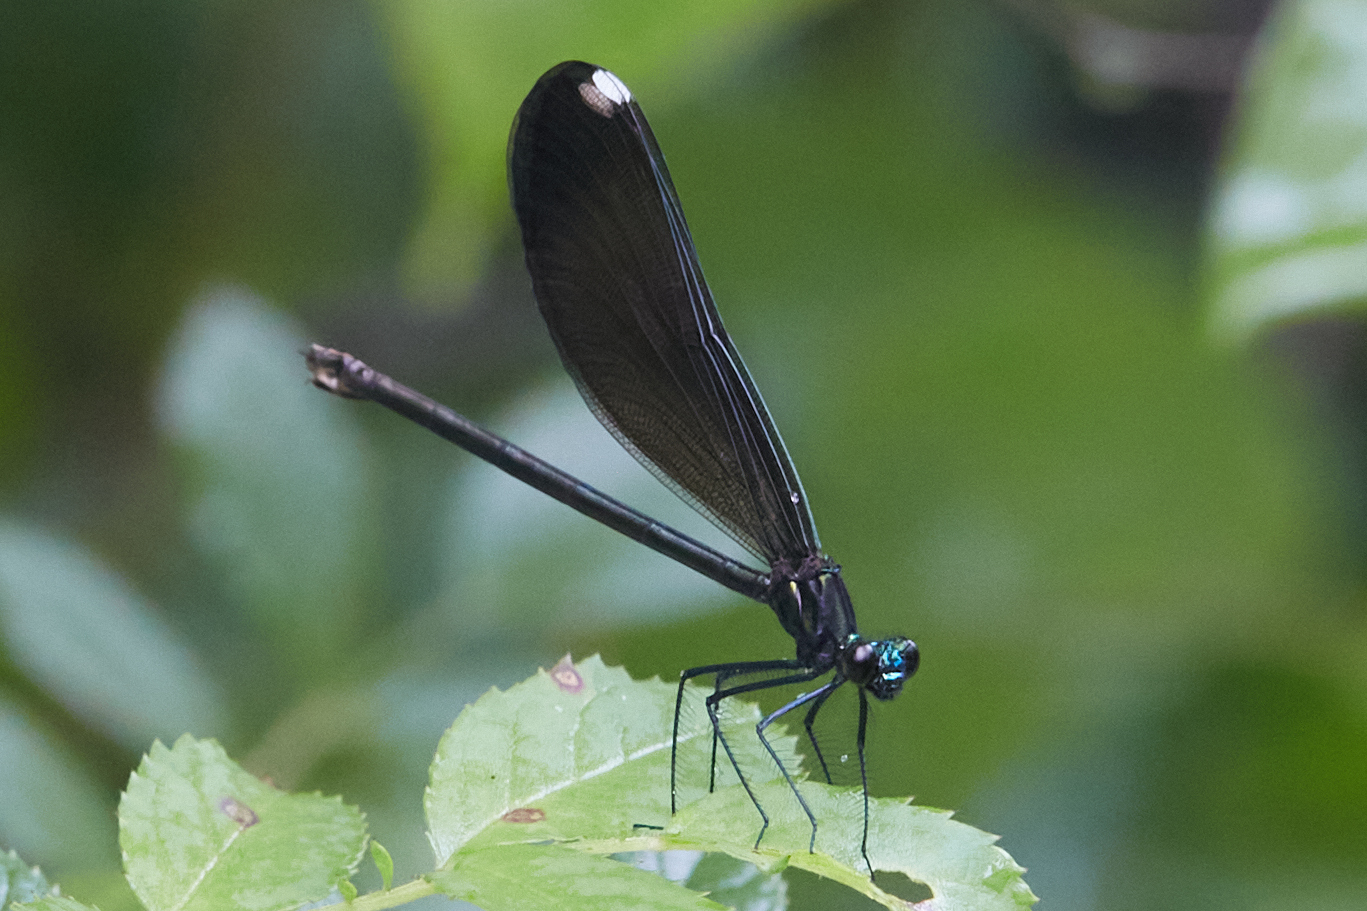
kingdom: Animalia
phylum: Arthropoda
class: Insecta
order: Odonata
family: Calopterygidae
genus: Calopteryx
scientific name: Calopteryx maculata
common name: Ebony jewelwing
